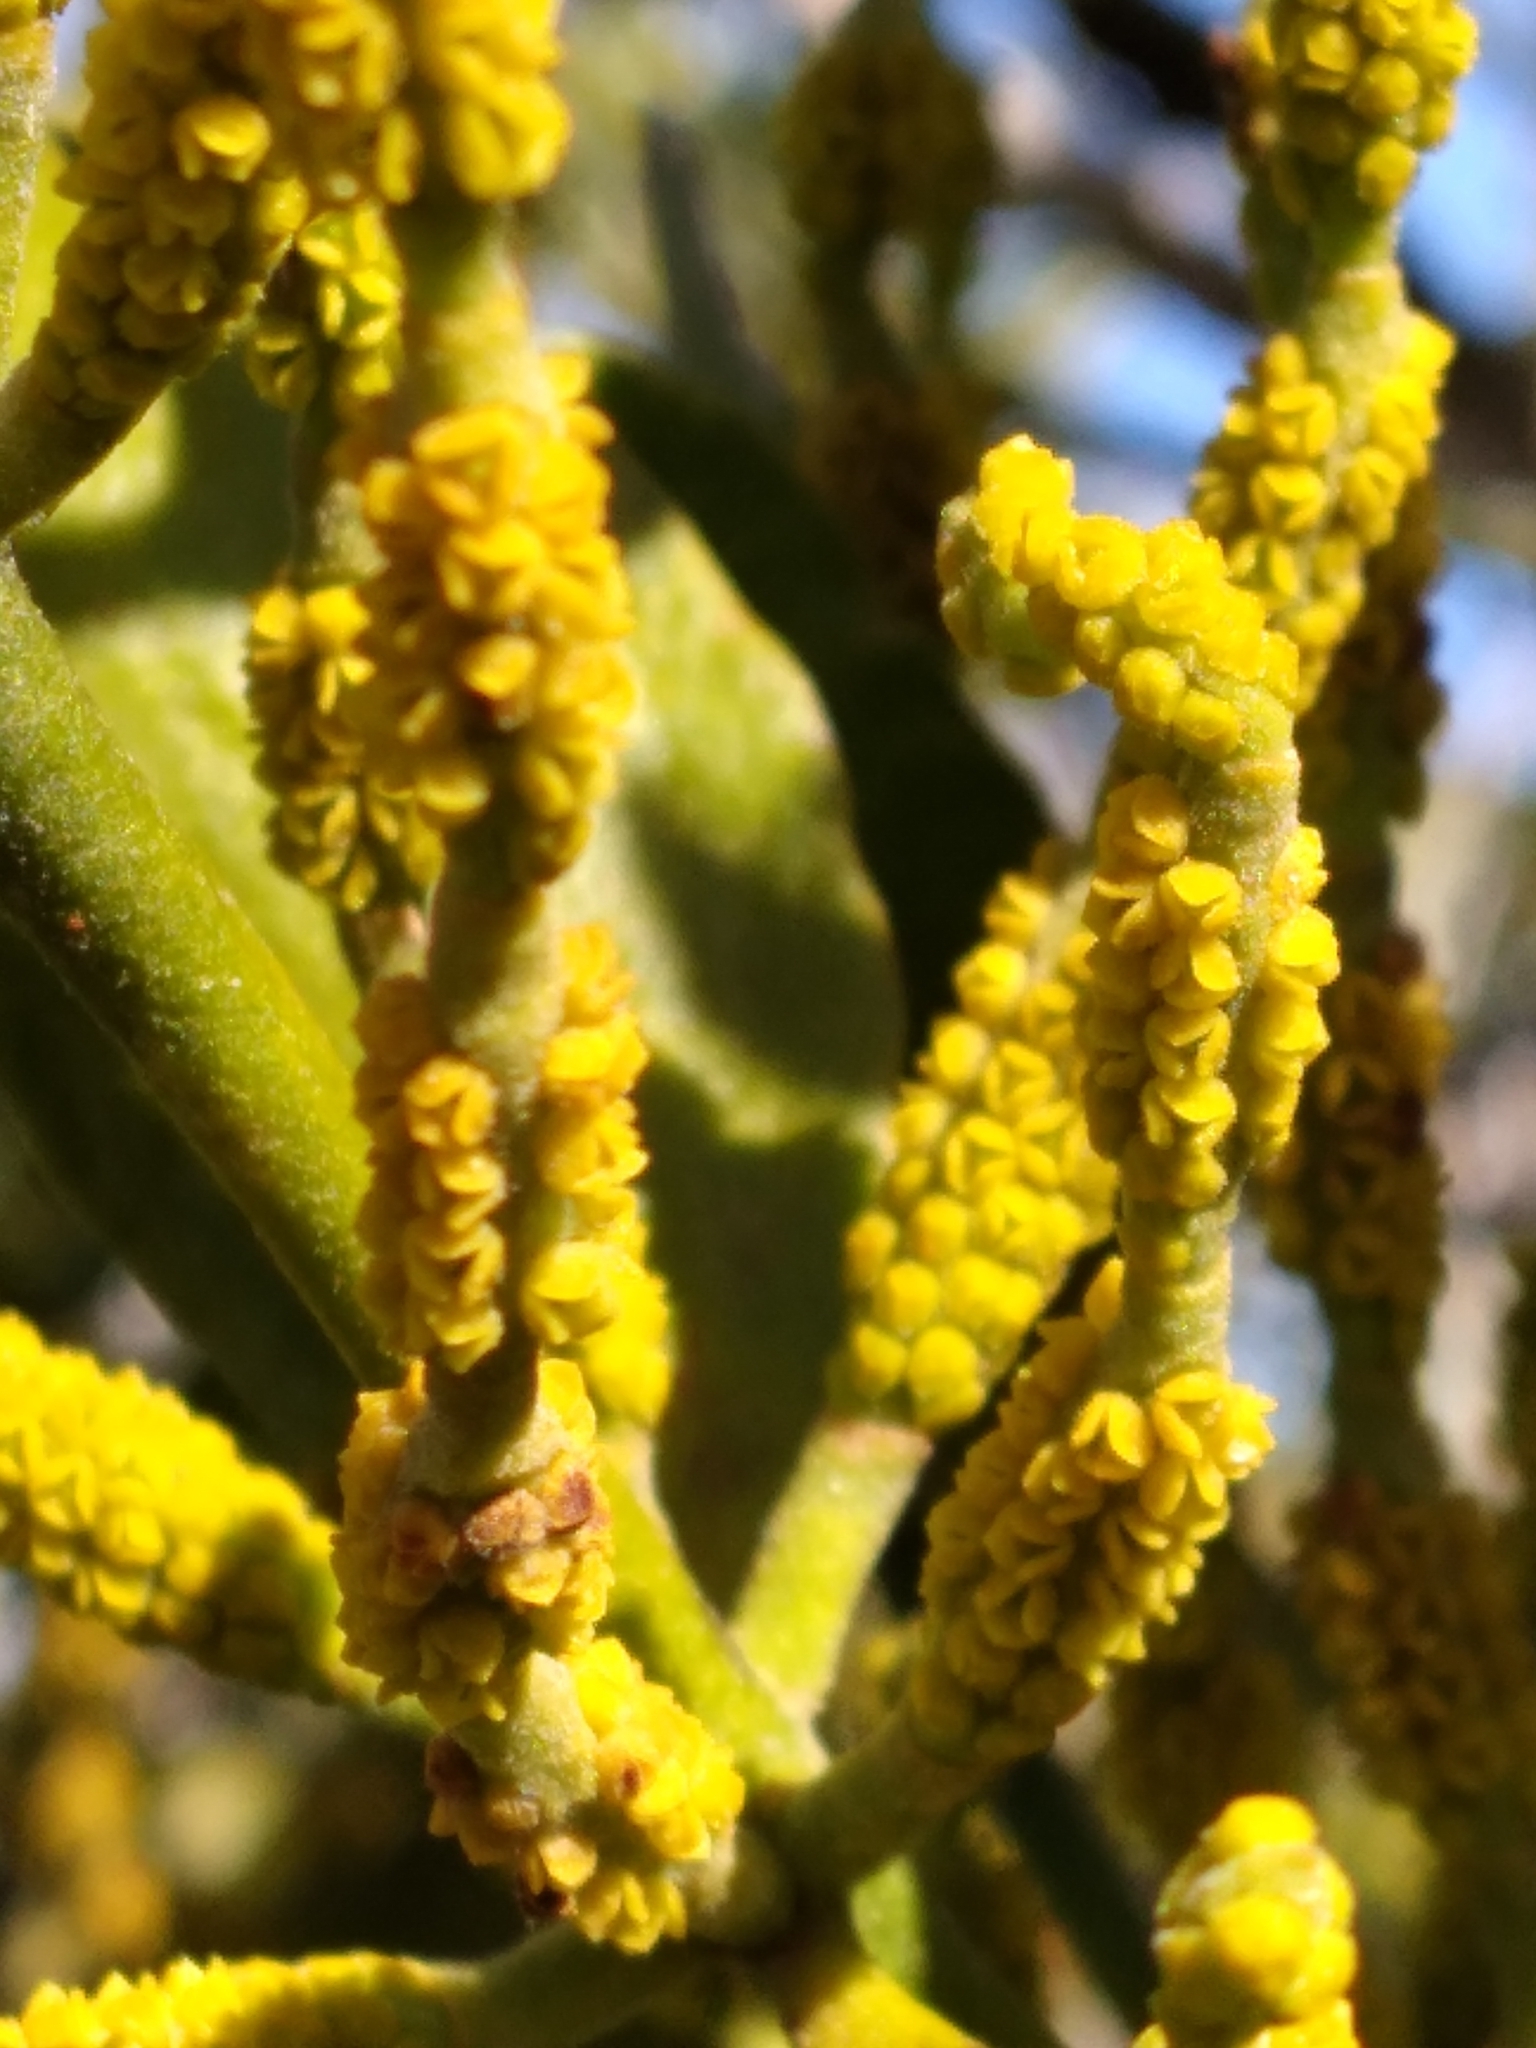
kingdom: Plantae
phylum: Tracheophyta
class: Magnoliopsida
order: Santalales
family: Viscaceae
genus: Phoradendron
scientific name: Phoradendron leucarpum
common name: Pacific mistletoe
